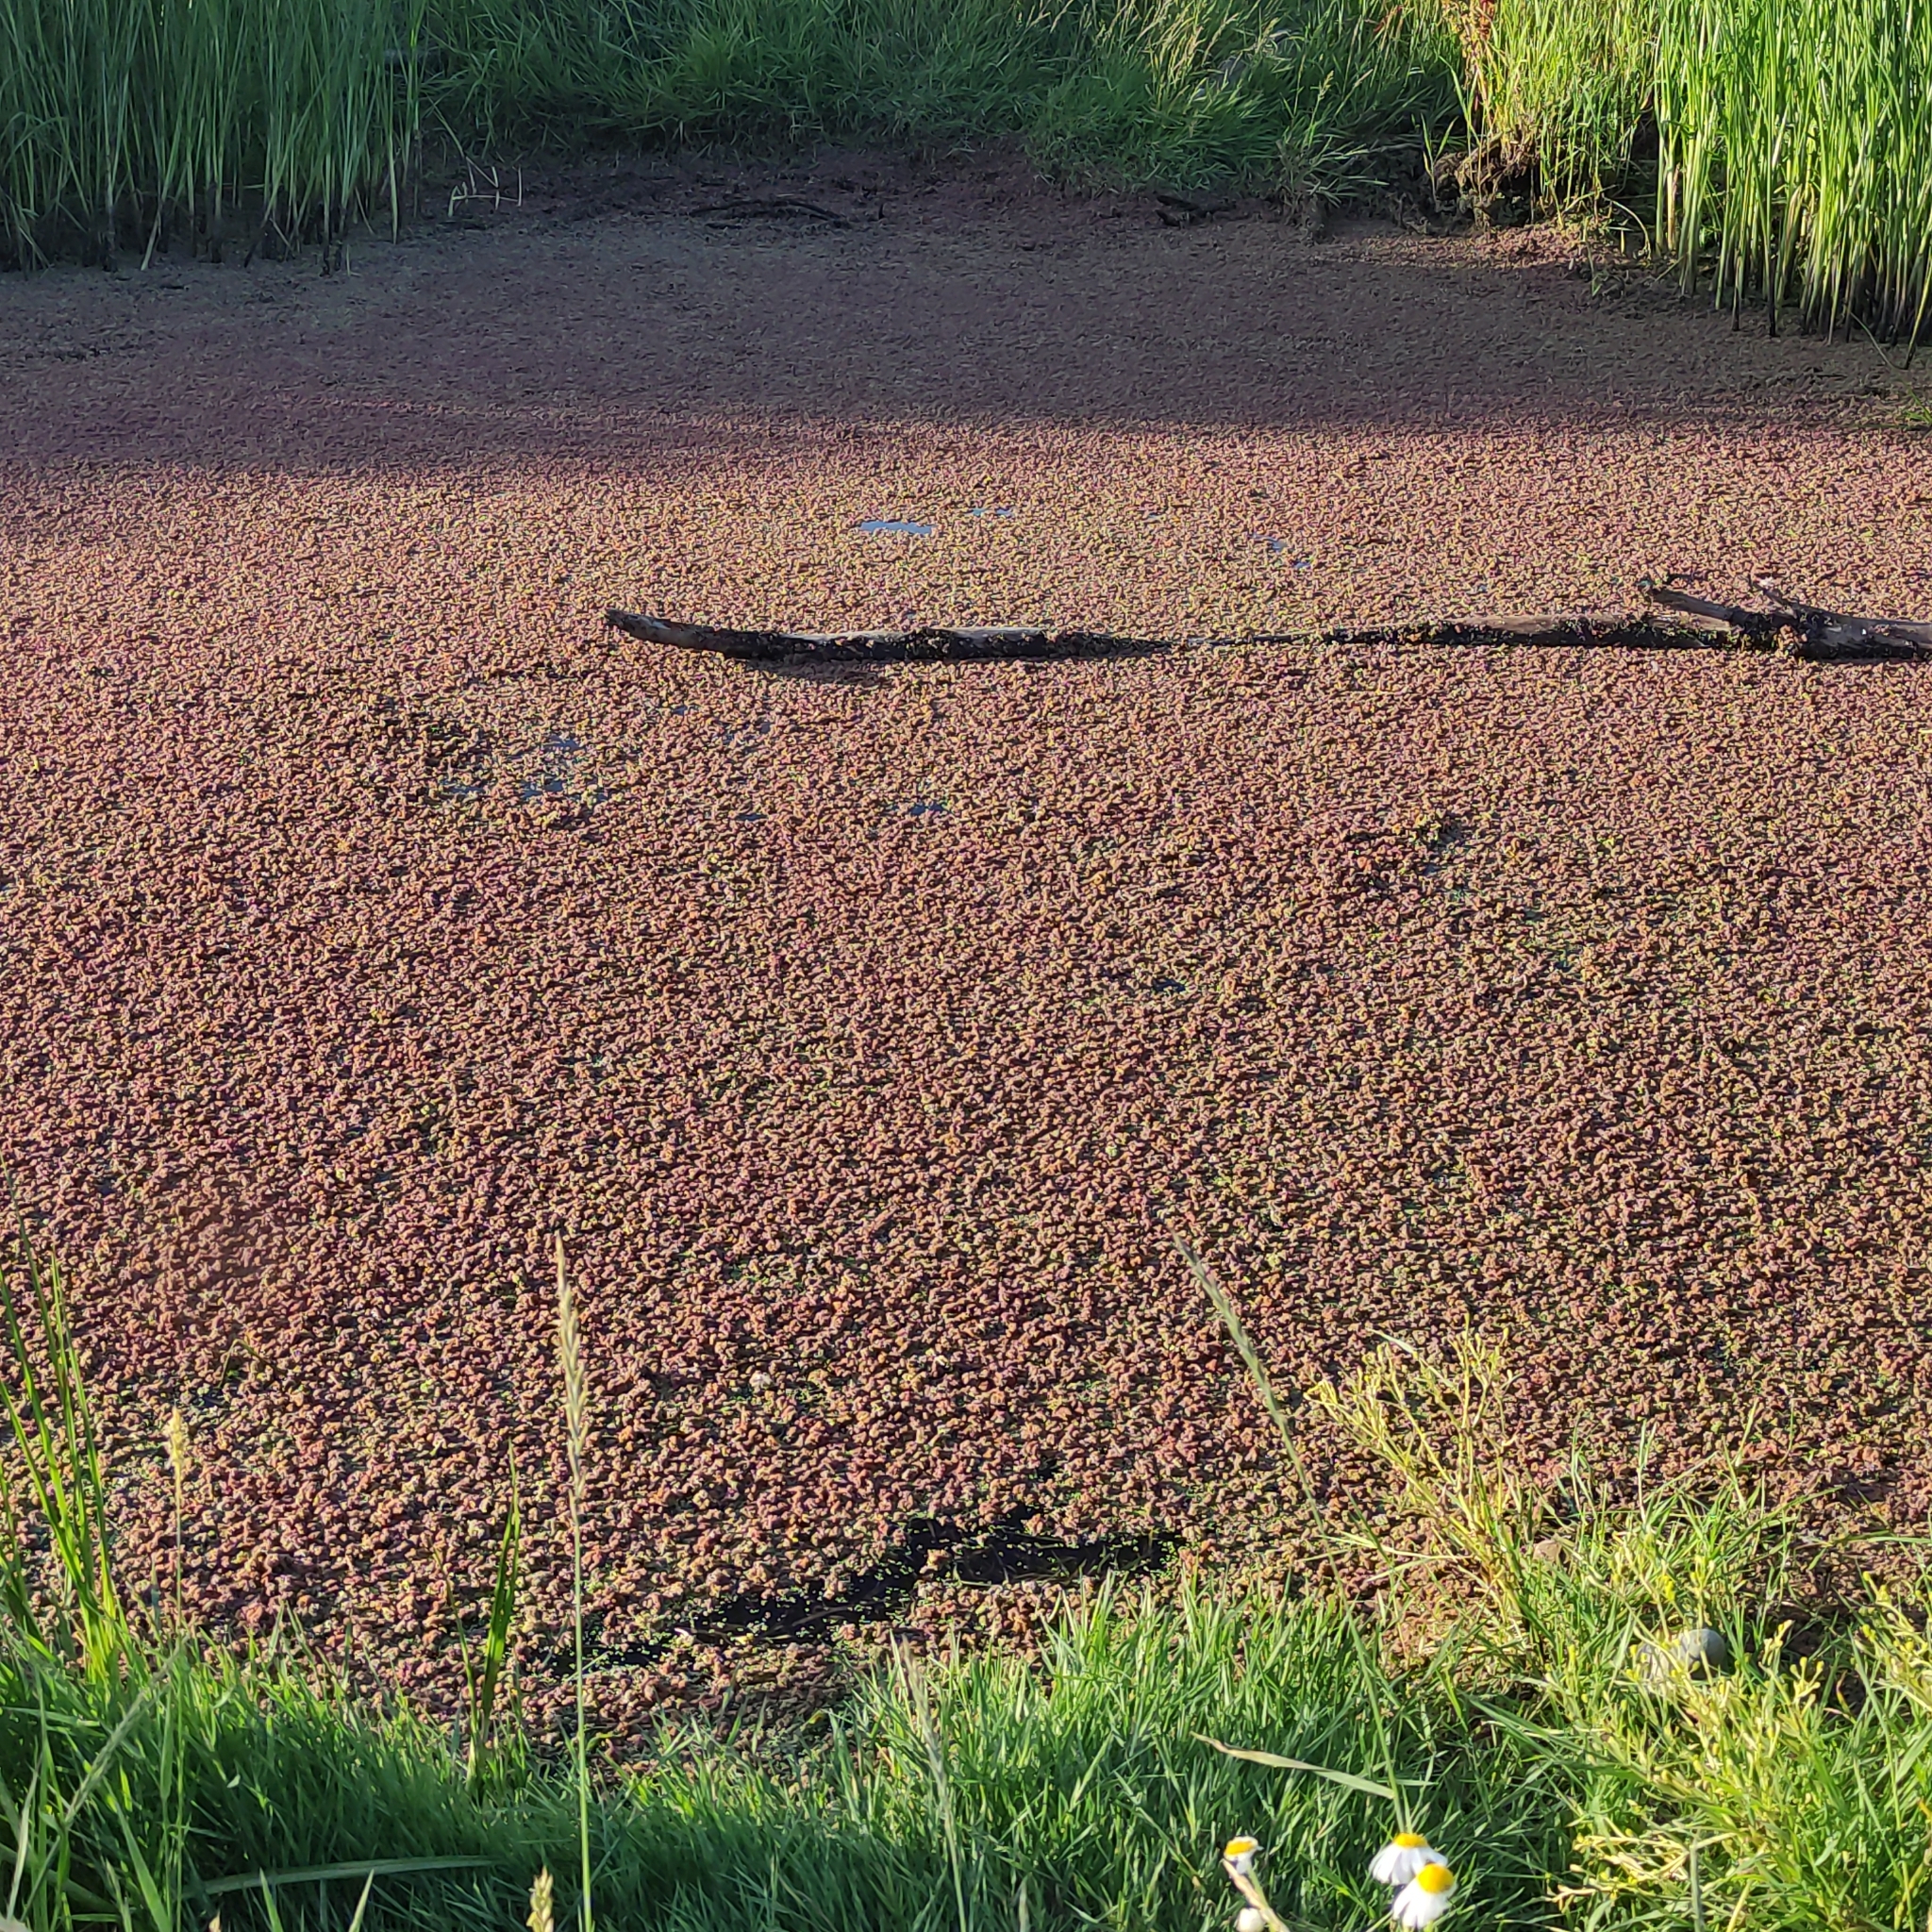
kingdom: Plantae
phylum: Tracheophyta
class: Polypodiopsida
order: Salviniales
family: Salviniaceae
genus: Azolla
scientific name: Azolla rubra
